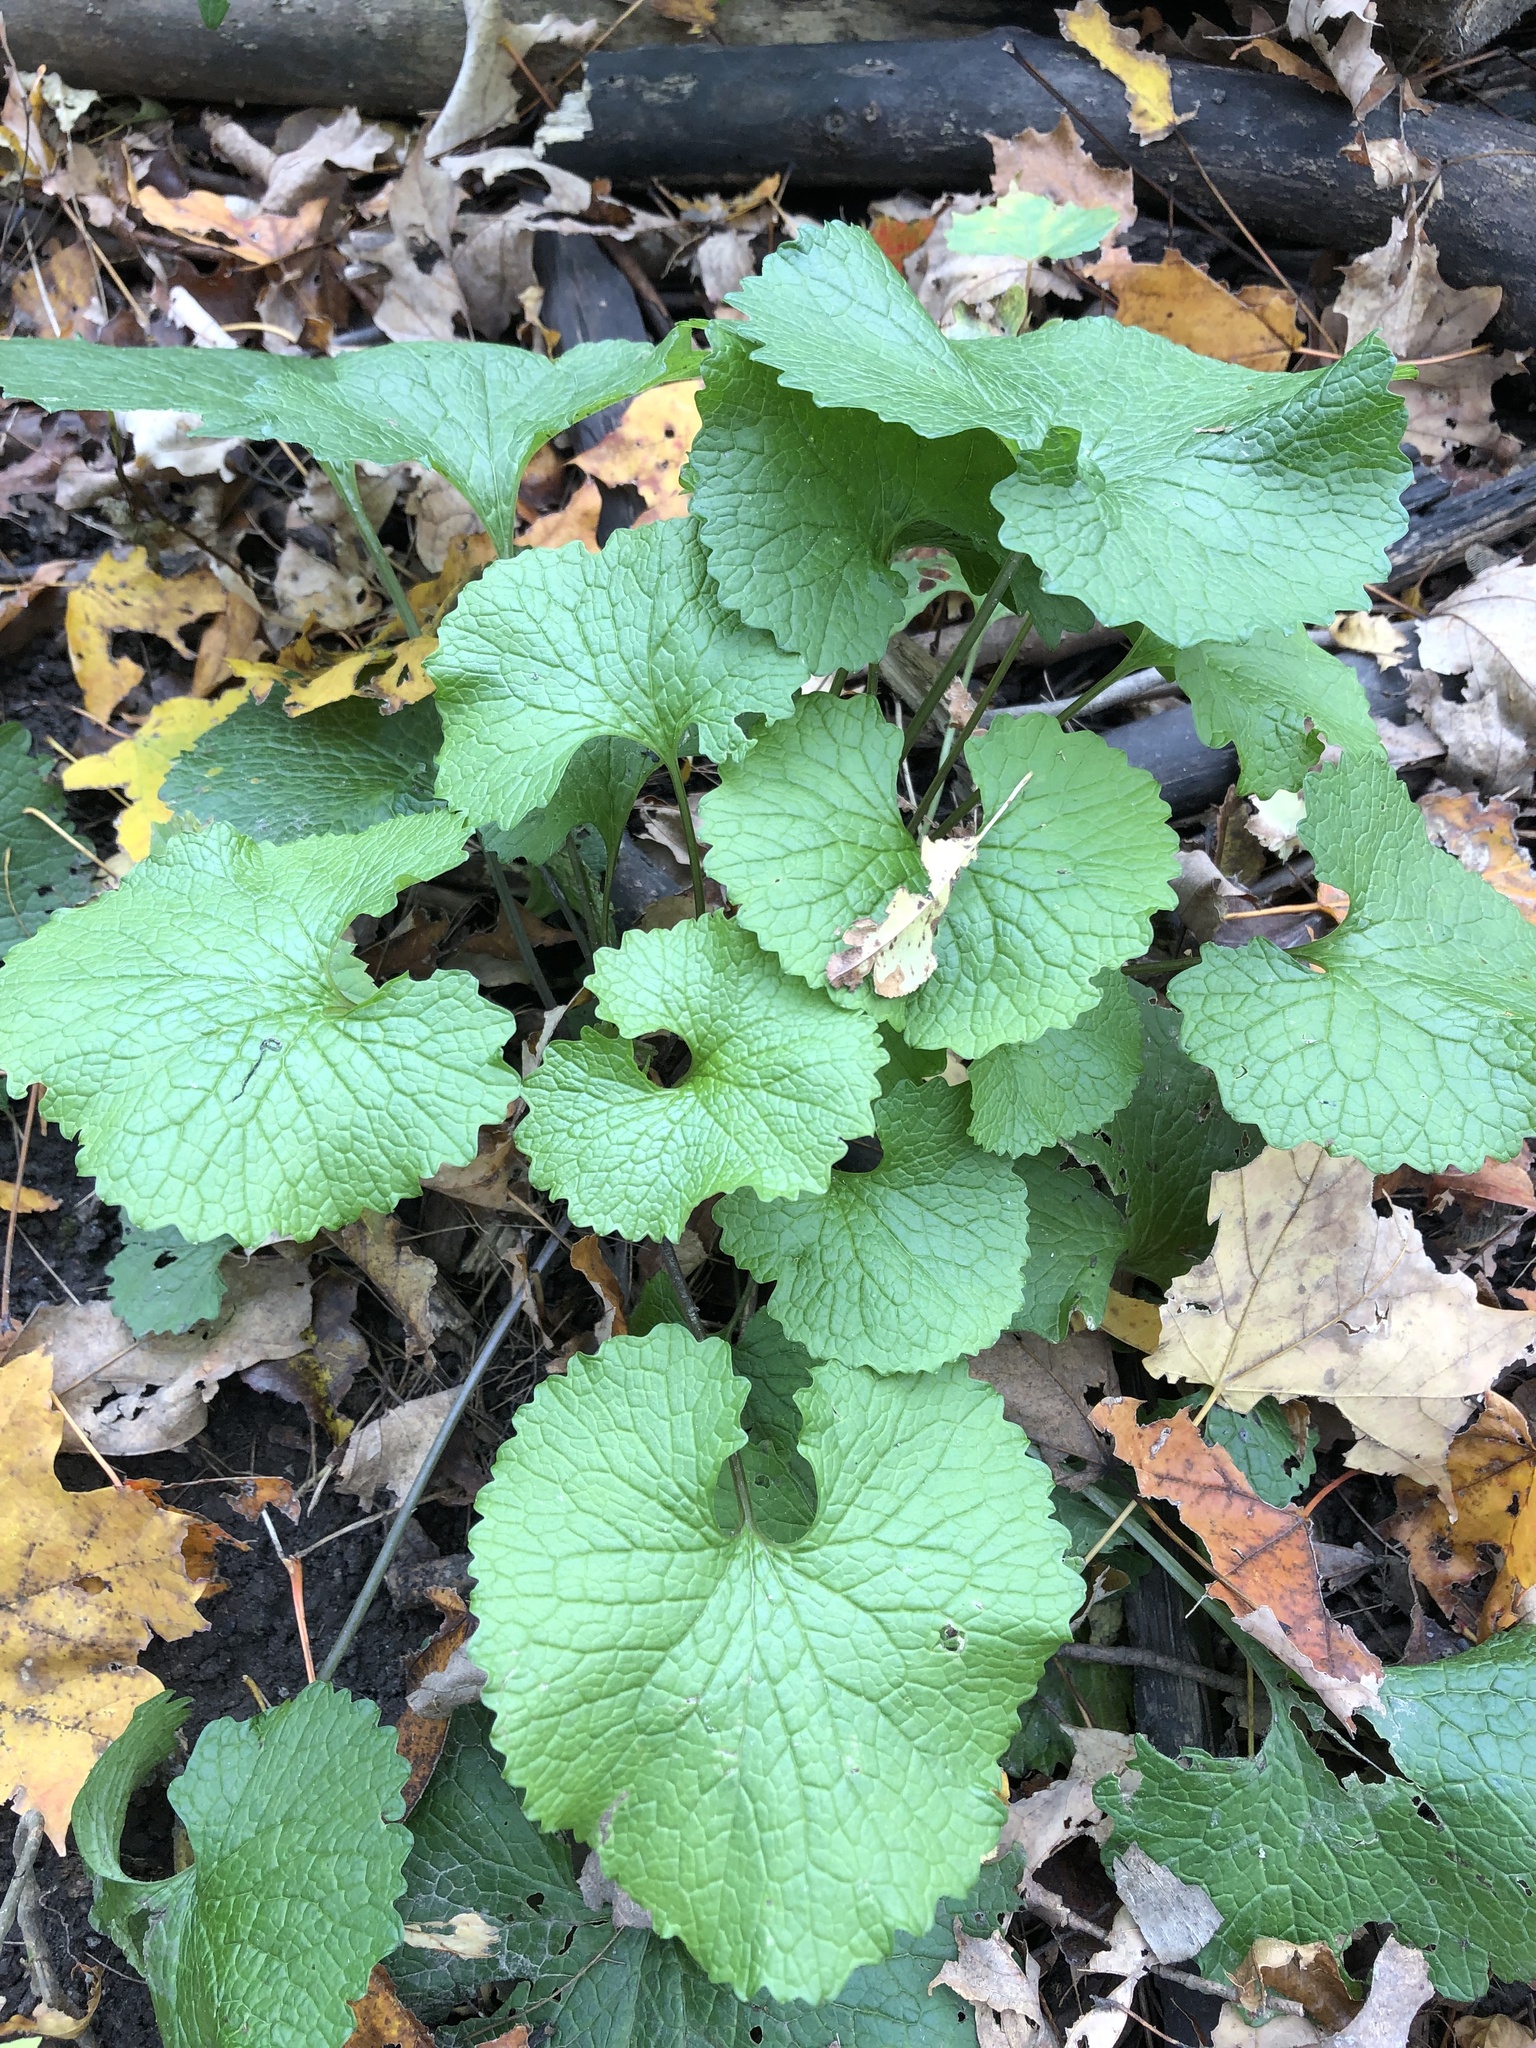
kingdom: Plantae
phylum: Tracheophyta
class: Magnoliopsida
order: Brassicales
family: Brassicaceae
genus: Alliaria
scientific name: Alliaria petiolata
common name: Garlic mustard
